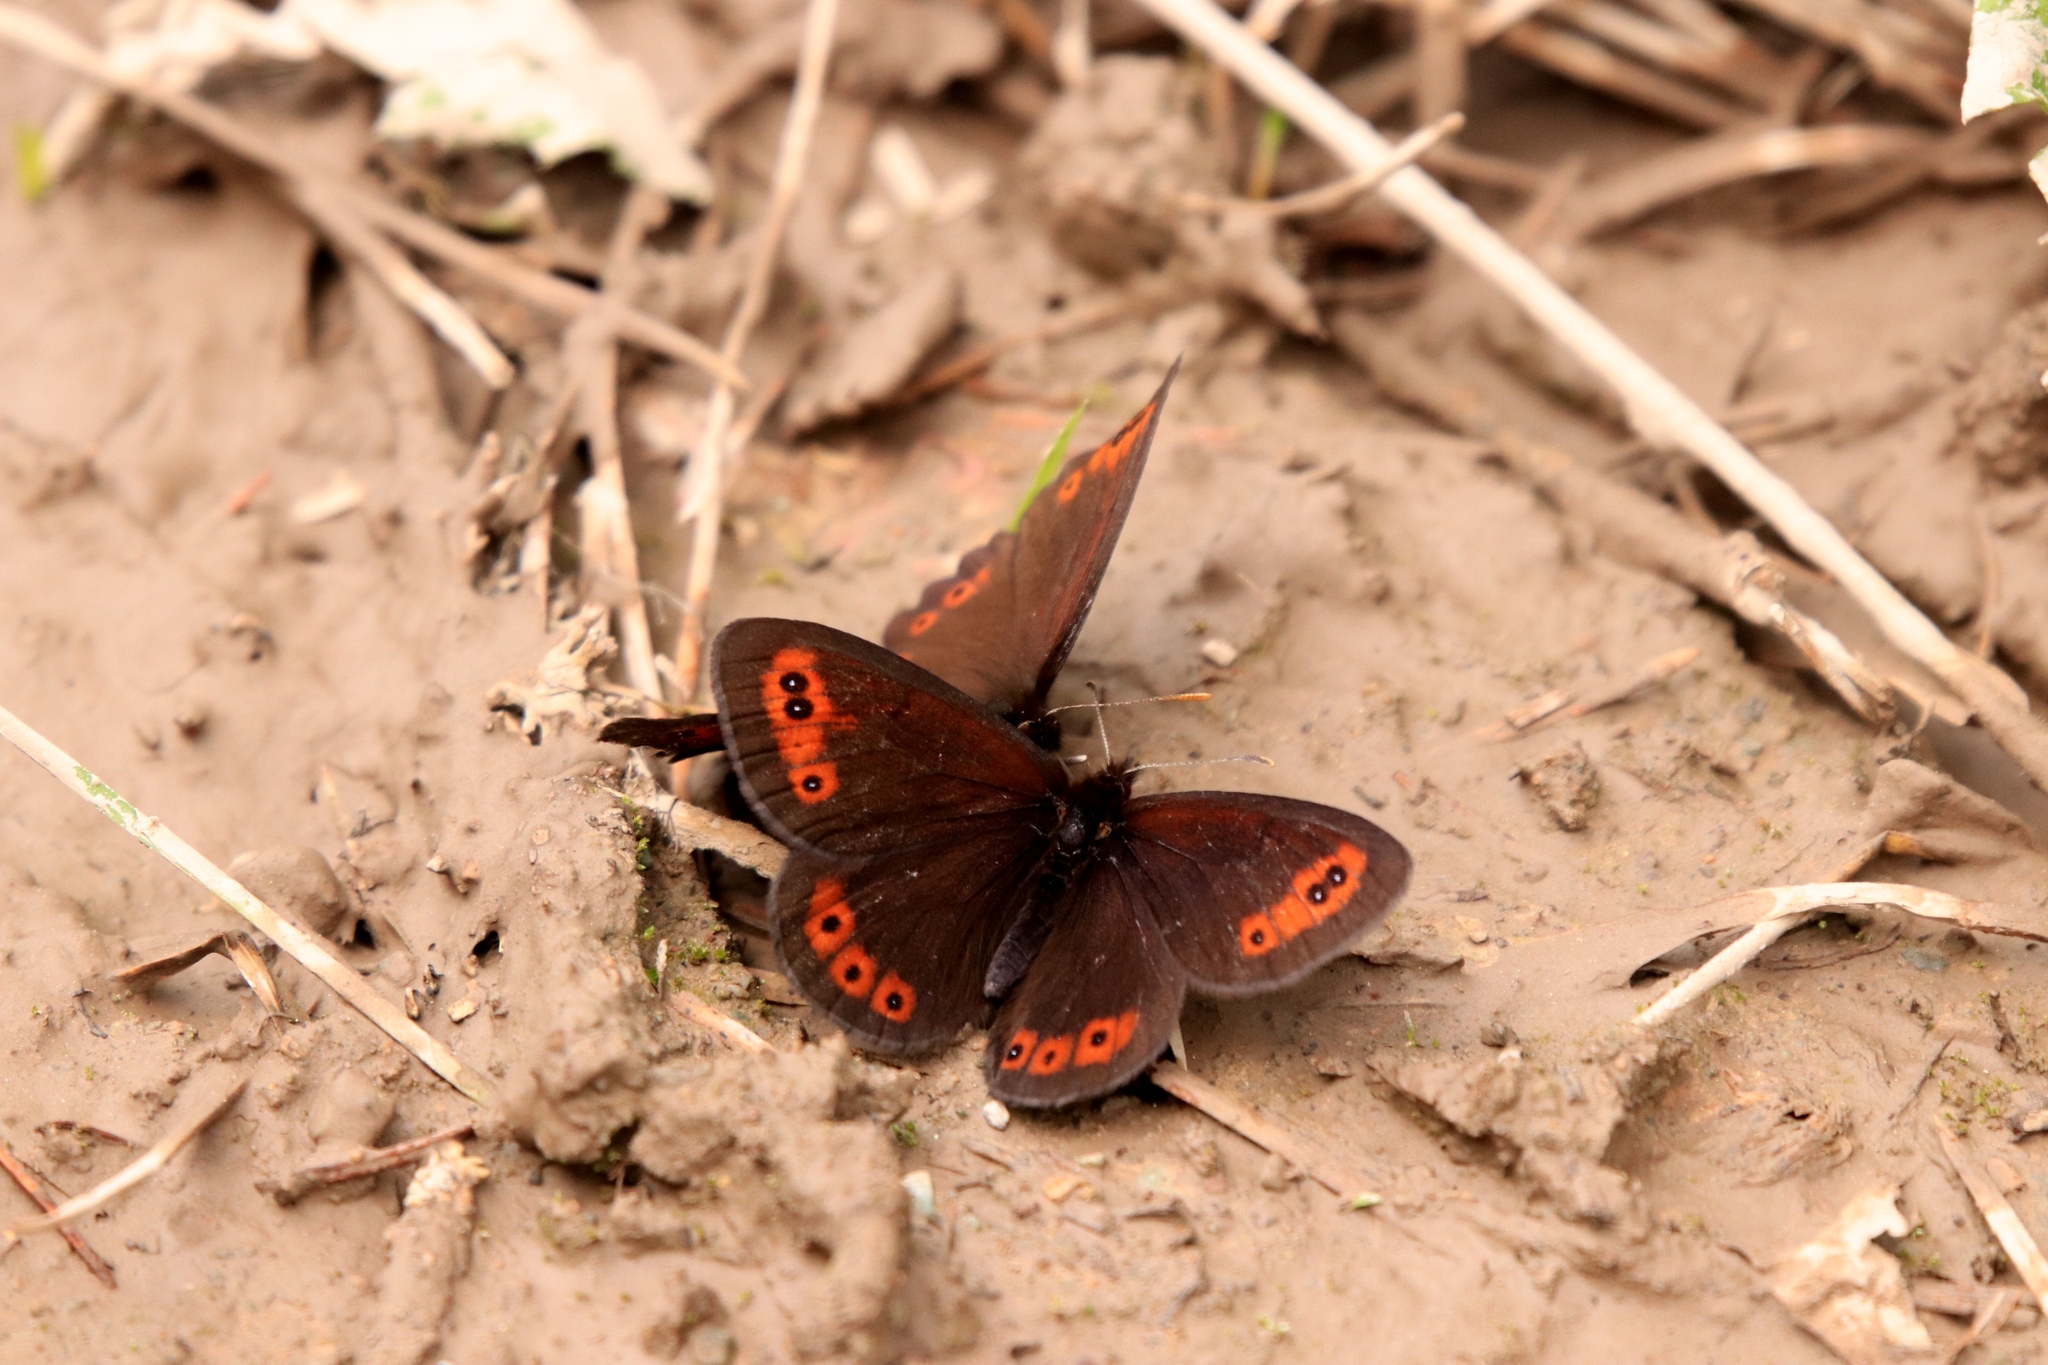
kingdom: Animalia
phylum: Arthropoda
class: Insecta
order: Lepidoptera
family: Nymphalidae
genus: Erebia
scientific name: Erebia epipsodea
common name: Common alpine
